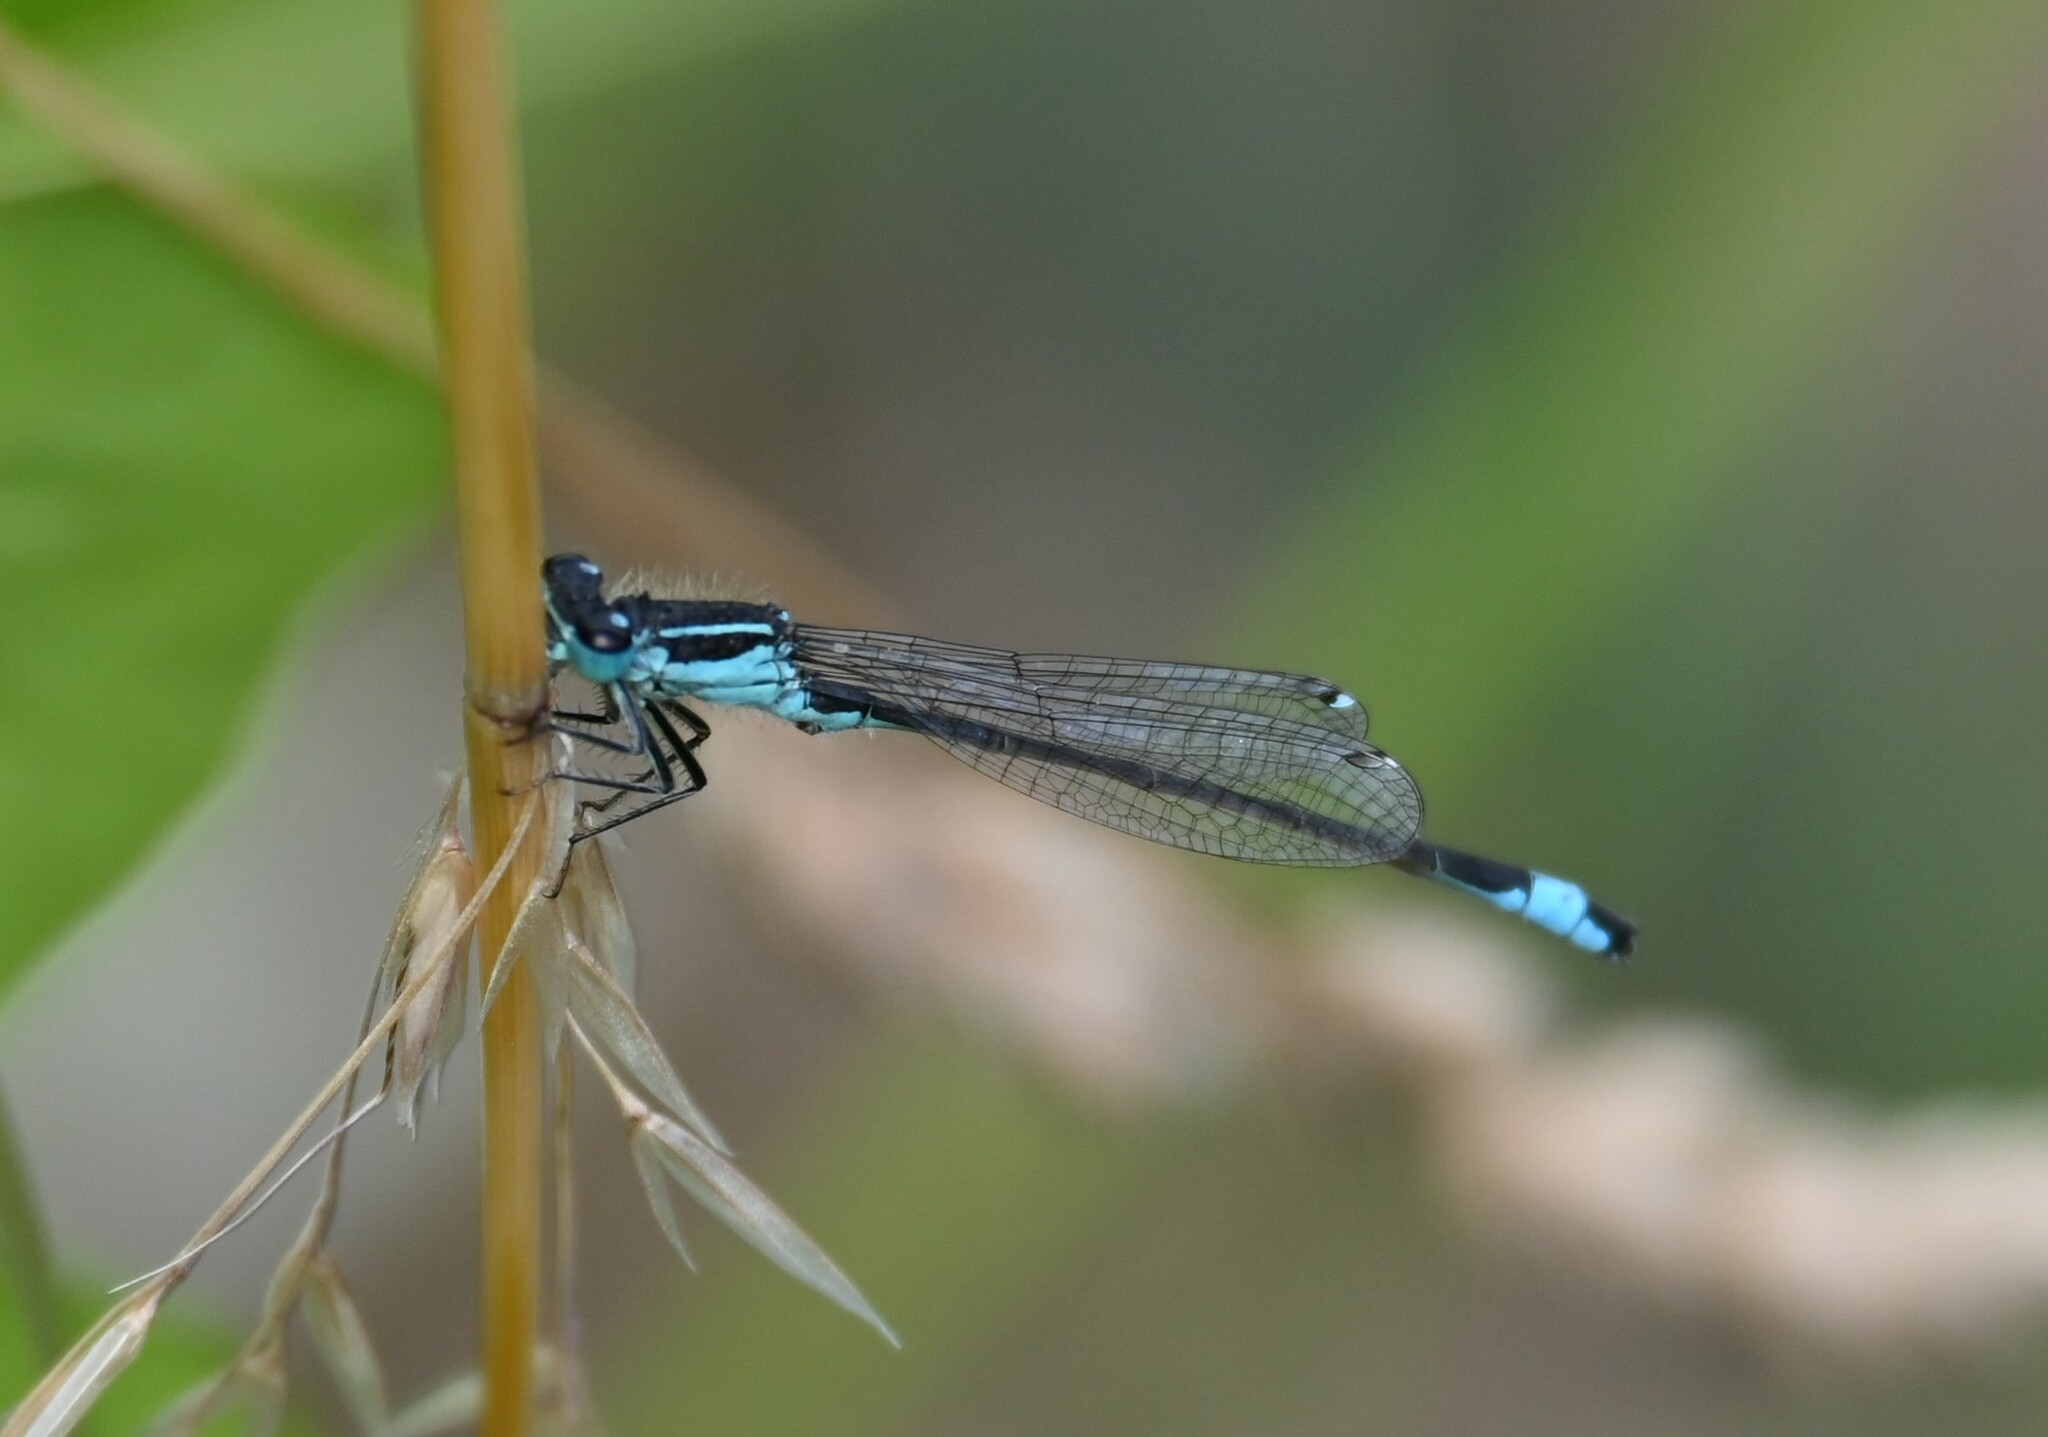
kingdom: Animalia
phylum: Arthropoda
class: Insecta
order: Odonata
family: Coenagrionidae
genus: Ischnura
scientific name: Ischnura elegans
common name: Blue-tailed damselfly
